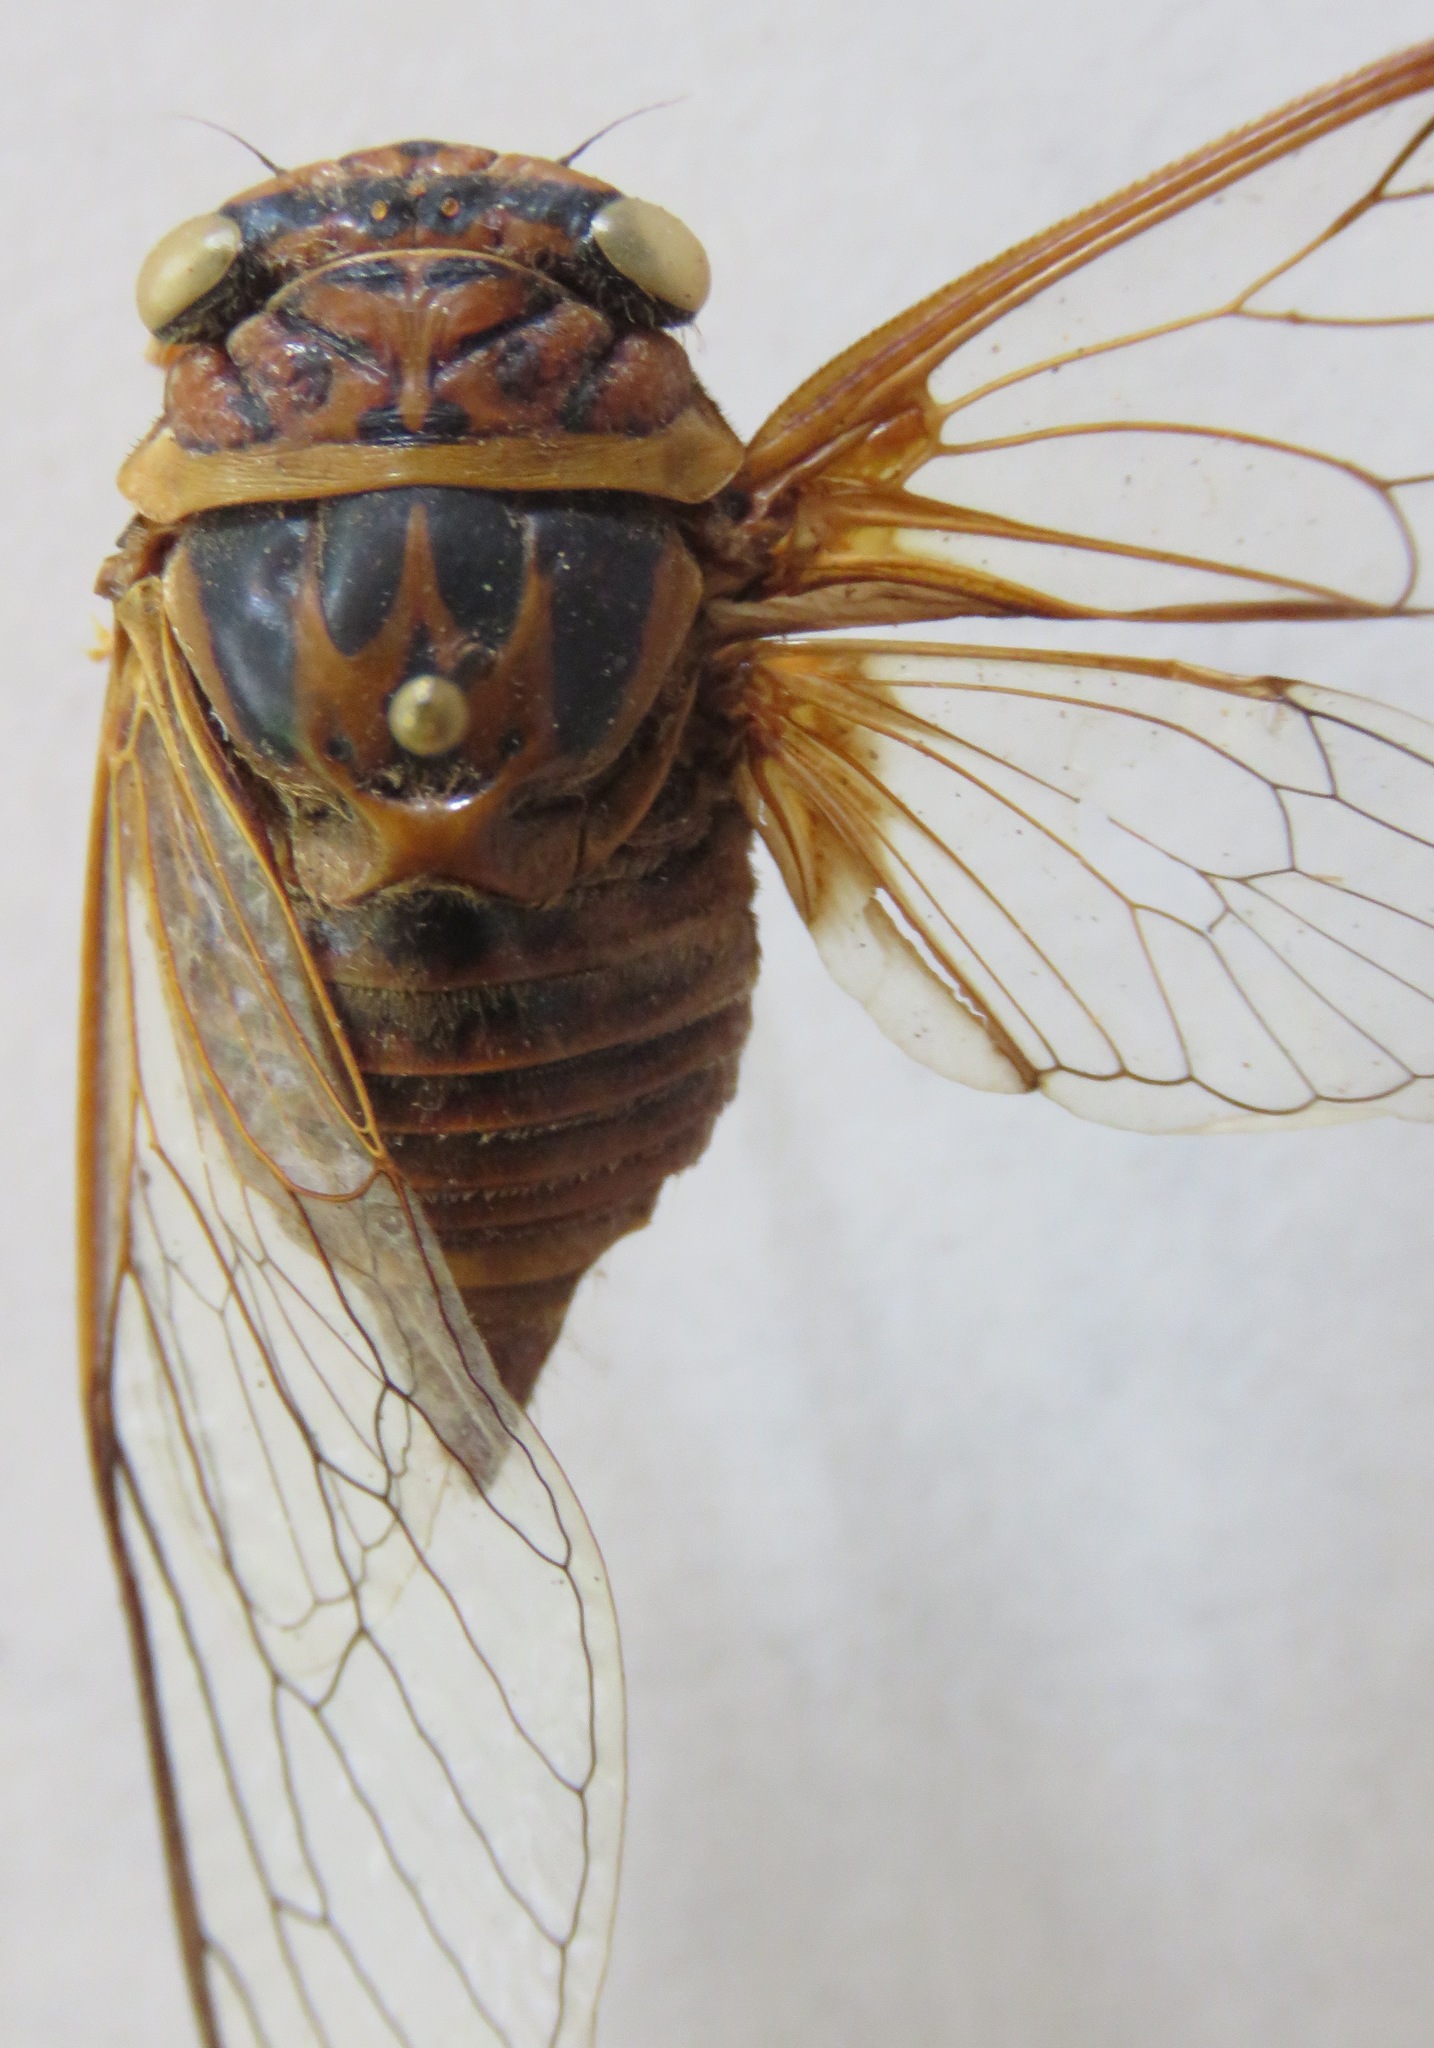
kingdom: Animalia
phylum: Arthropoda
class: Insecta
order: Hemiptera
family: Cicadidae
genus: Guyalna
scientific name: Guyalna woldai
